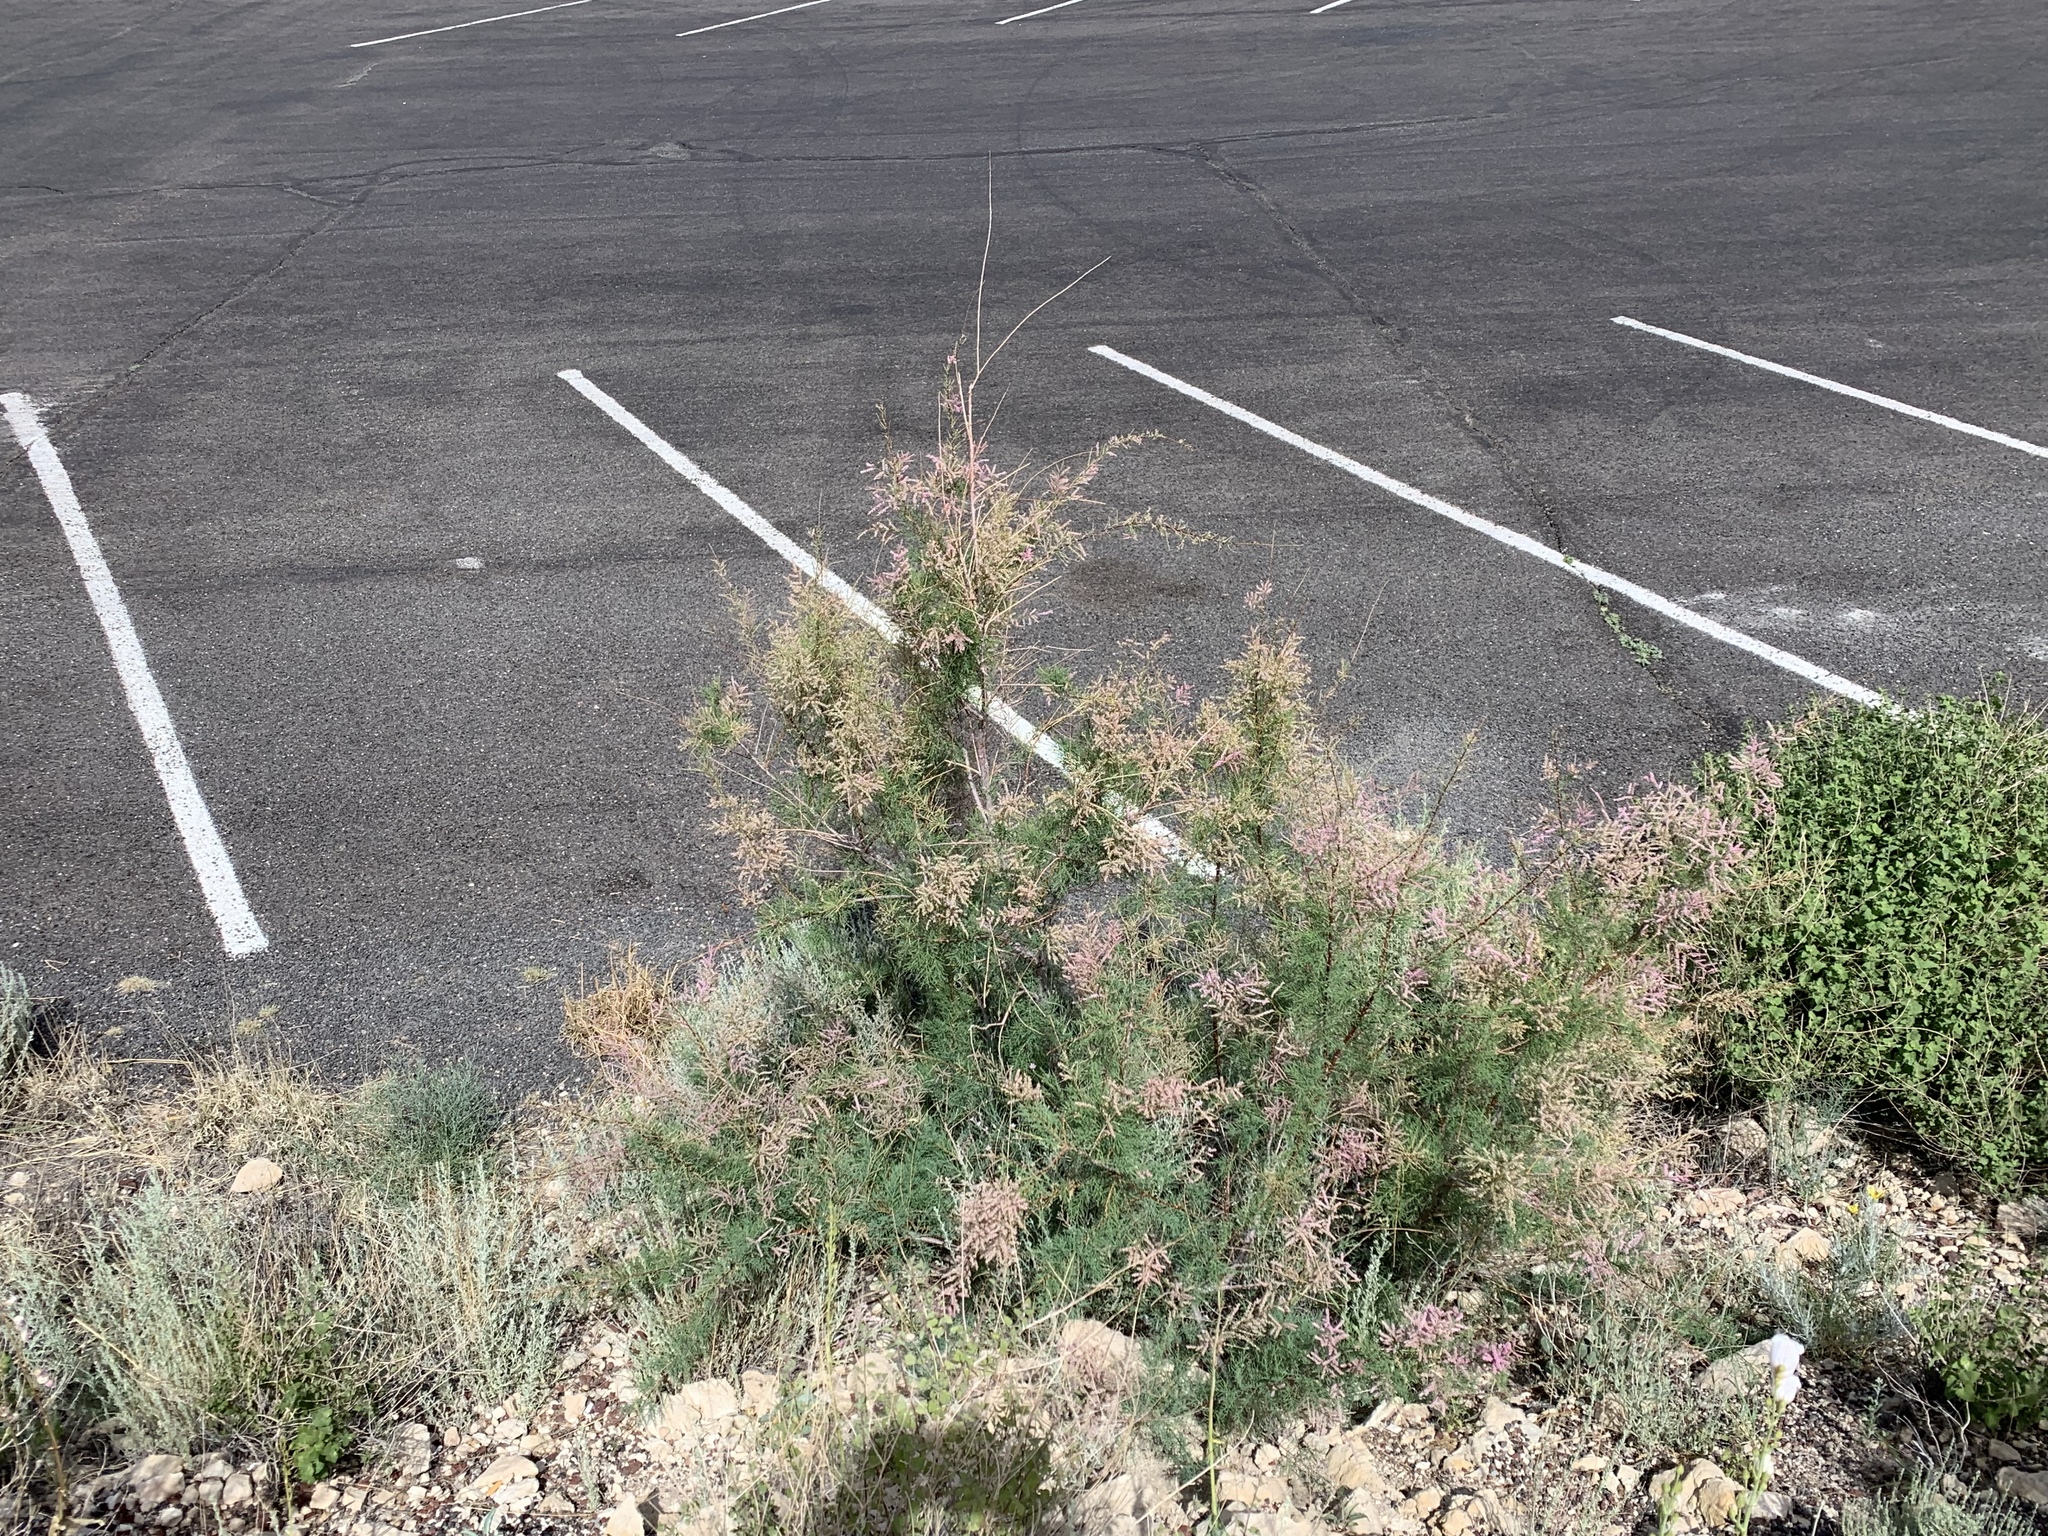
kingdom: Plantae
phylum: Tracheophyta
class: Magnoliopsida
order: Caryophyllales
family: Tamaricaceae
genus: Tamarix
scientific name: Tamarix ramosissima
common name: Pink tamarisk
